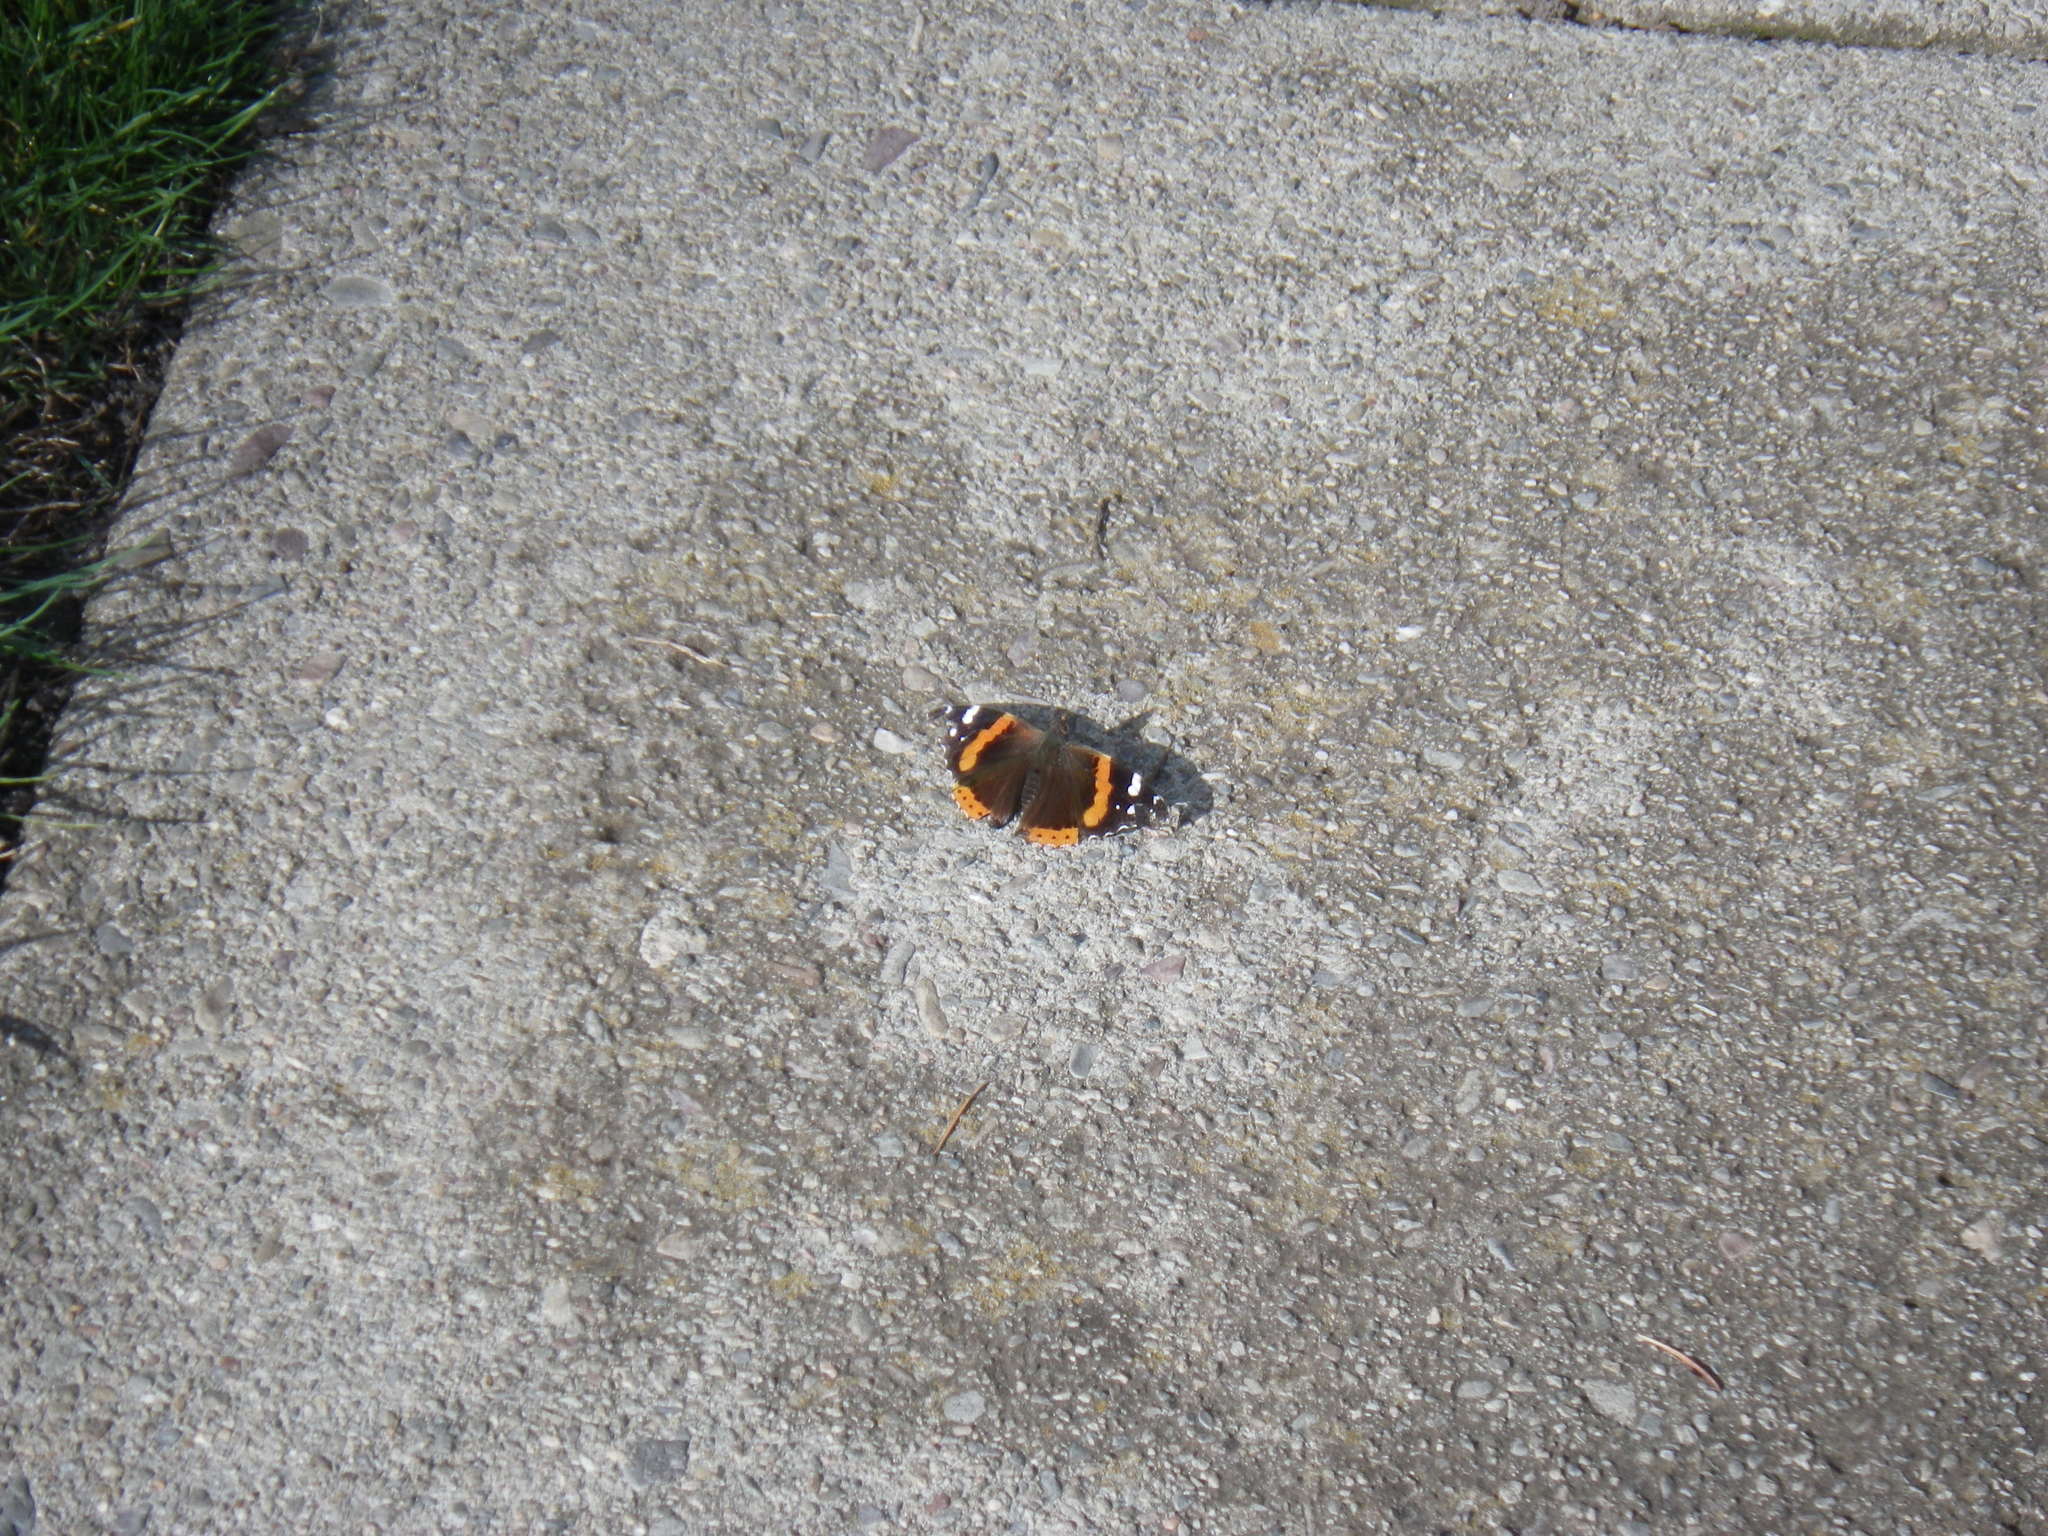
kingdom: Animalia
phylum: Arthropoda
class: Insecta
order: Lepidoptera
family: Nymphalidae
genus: Vanessa
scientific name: Vanessa atalanta
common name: Red admiral
